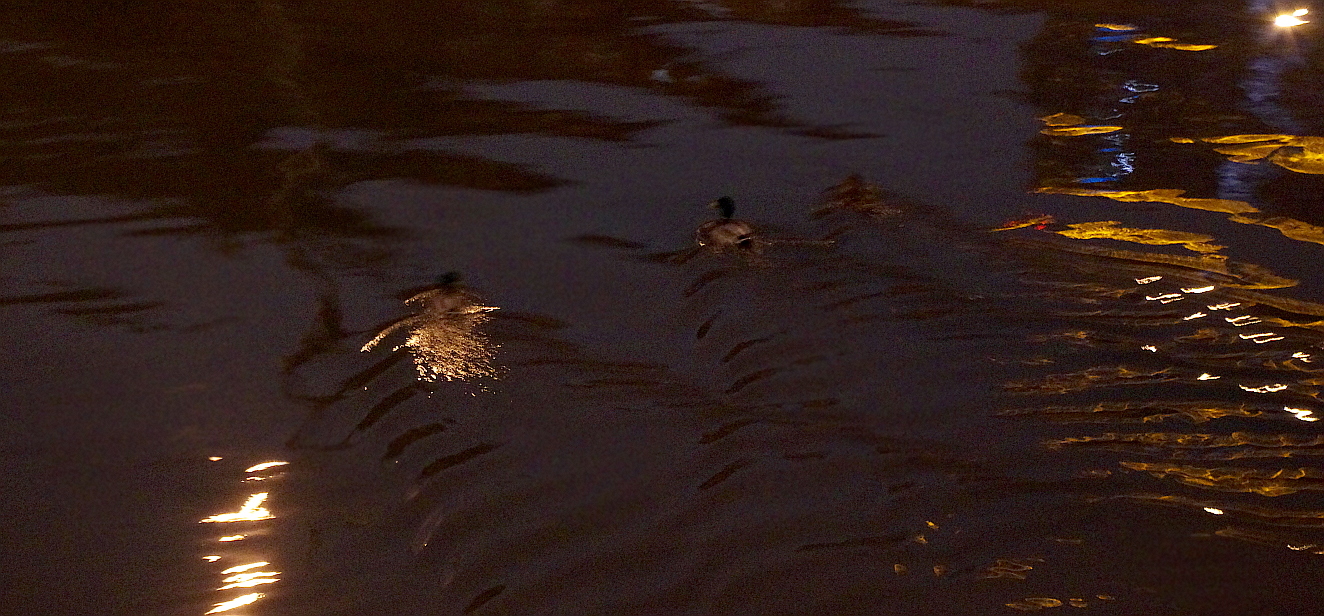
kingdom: Animalia
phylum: Chordata
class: Aves
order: Anseriformes
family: Anatidae
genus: Anas
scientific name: Anas platyrhynchos
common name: Mallard
